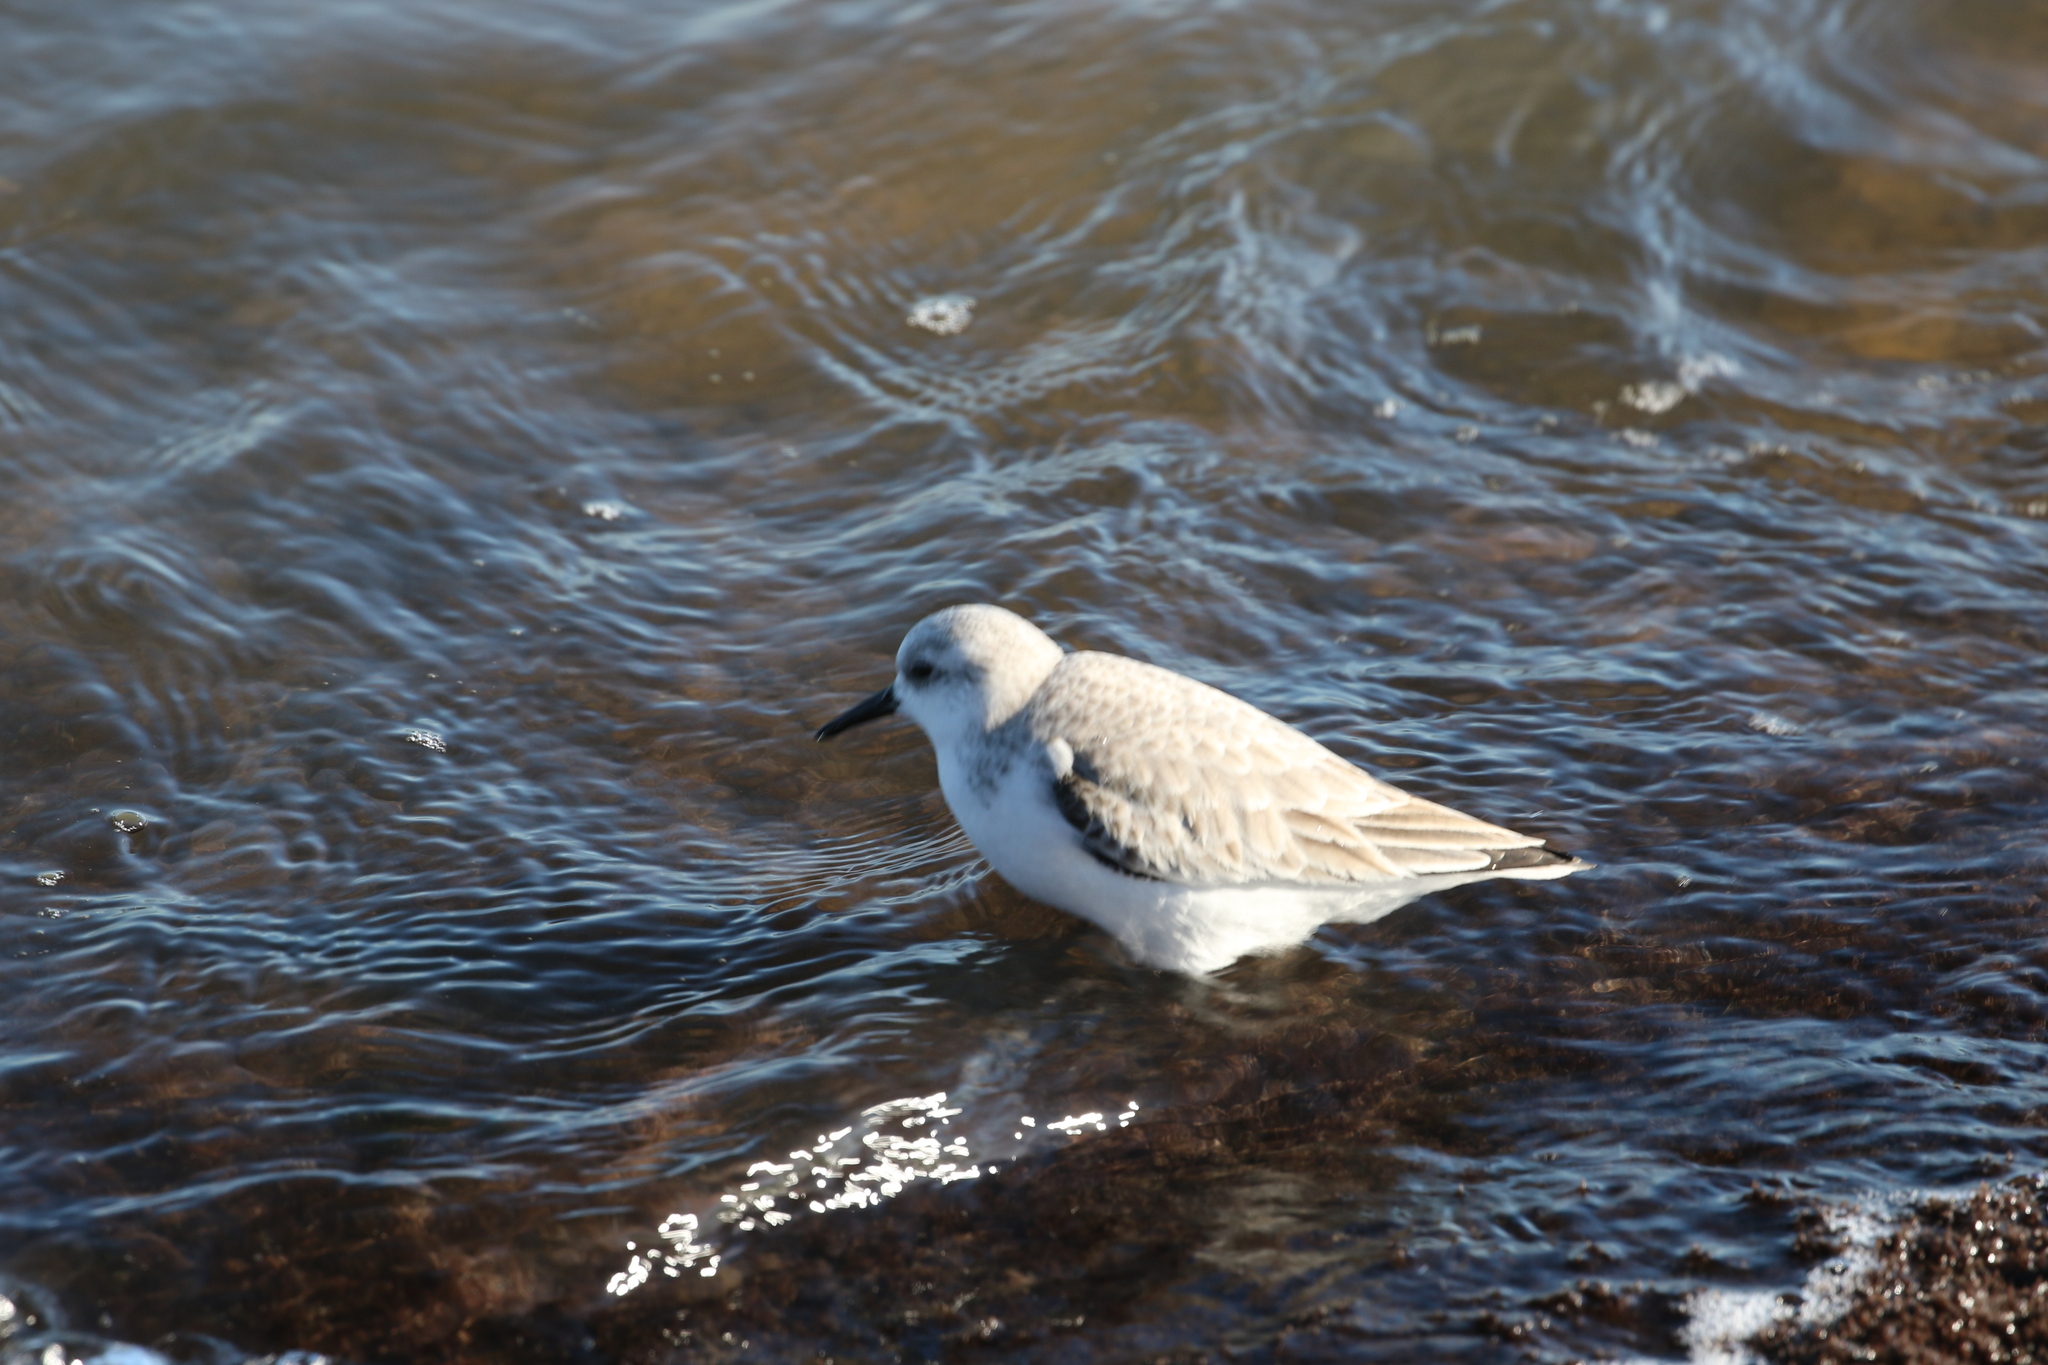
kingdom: Animalia
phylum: Chordata
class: Aves
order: Charadriiformes
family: Scolopacidae
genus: Calidris
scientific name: Calidris alba
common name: Sanderling
